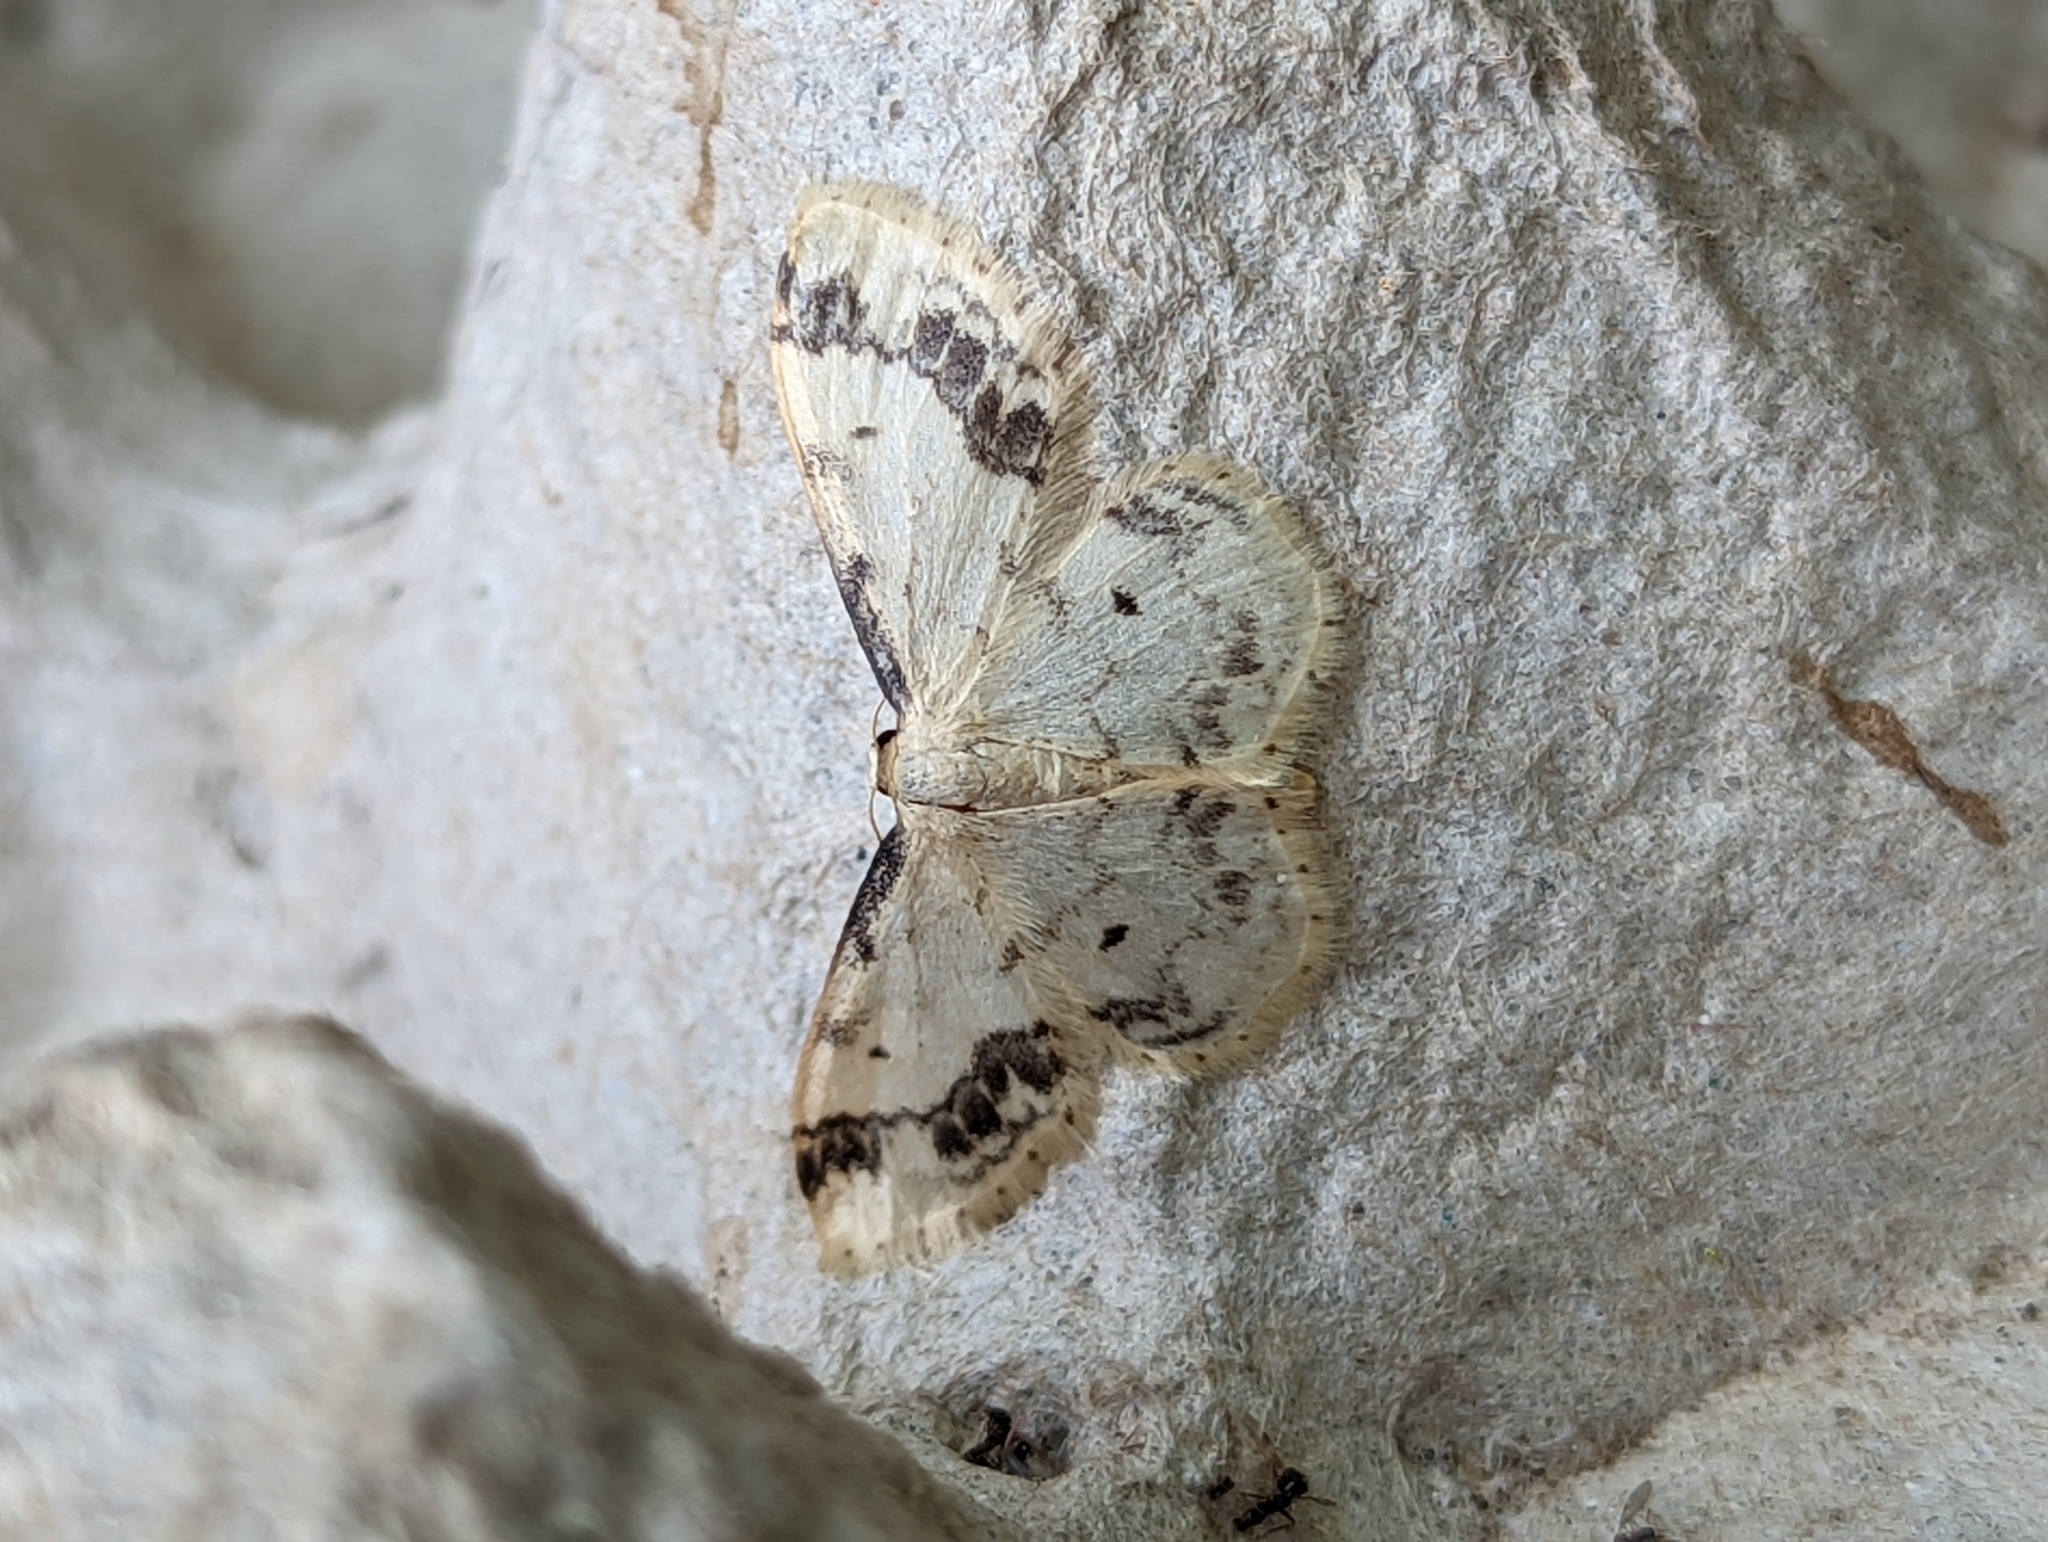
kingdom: Animalia
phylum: Arthropoda
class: Insecta
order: Lepidoptera
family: Geometridae
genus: Idaea
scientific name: Idaea trigeminata
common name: Treble brown spot
